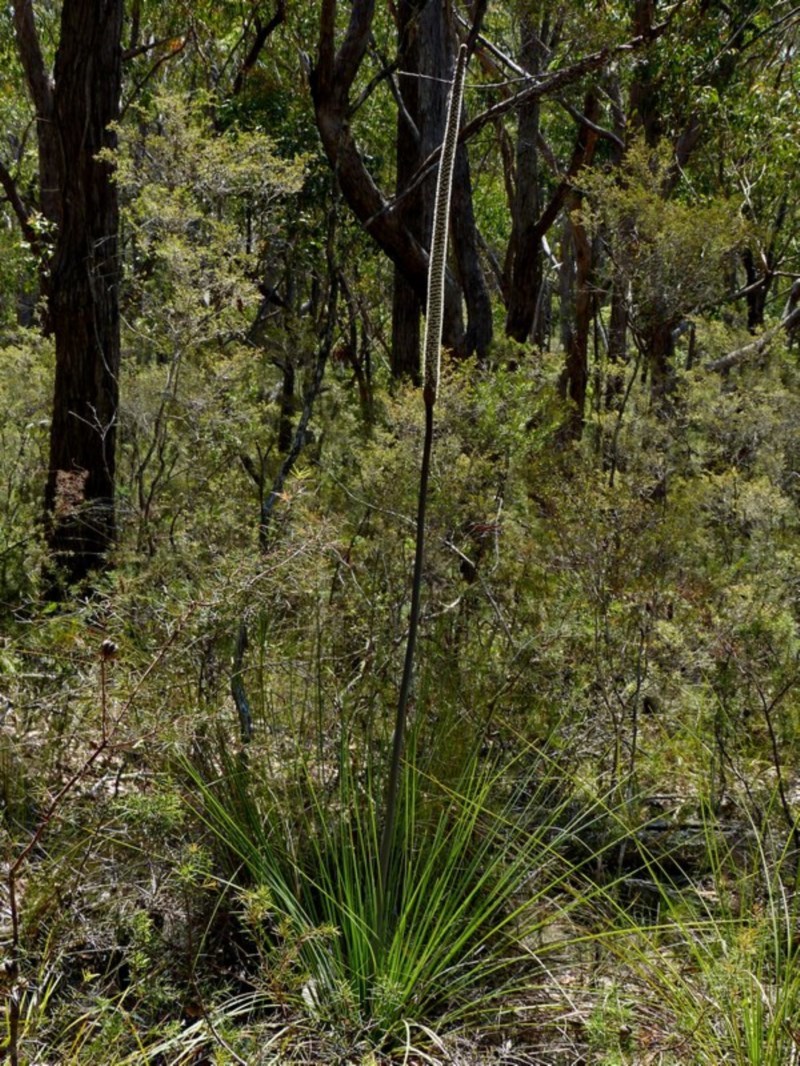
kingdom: Plantae
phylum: Tracheophyta
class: Liliopsida
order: Asparagales
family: Asphodelaceae
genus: Xanthorrhoea
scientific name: Xanthorrhoea concava
